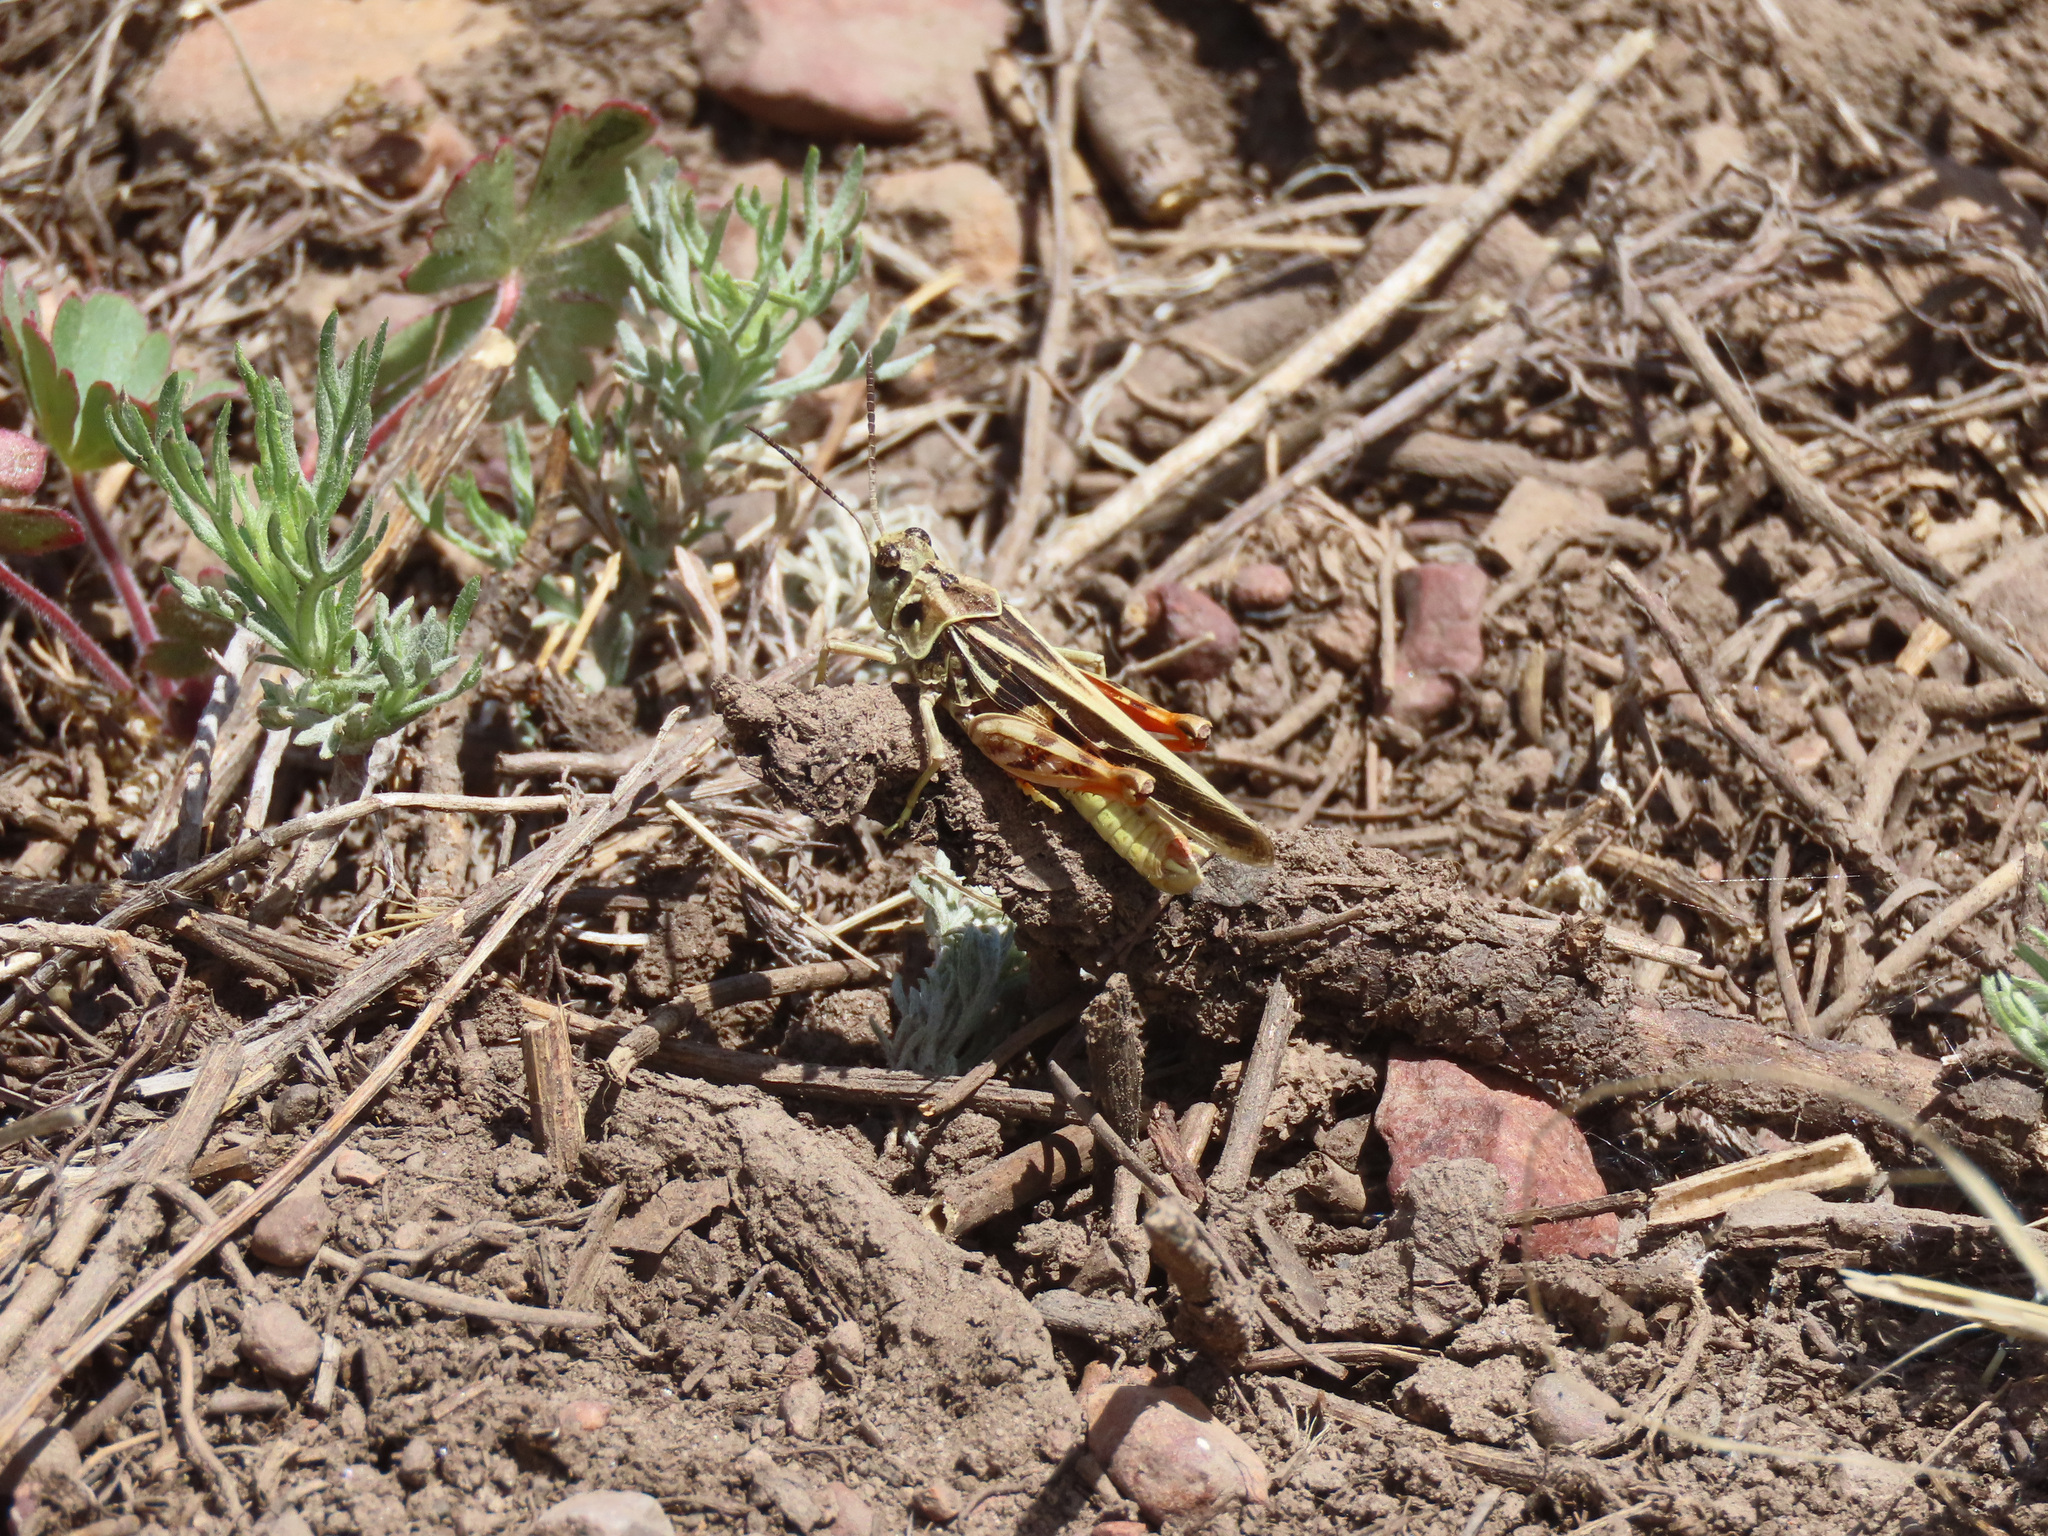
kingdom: Animalia
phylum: Arthropoda
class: Insecta
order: Orthoptera
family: Acrididae
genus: Xanthippus
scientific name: Xanthippus corallipes
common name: Redshanked grasshopper
